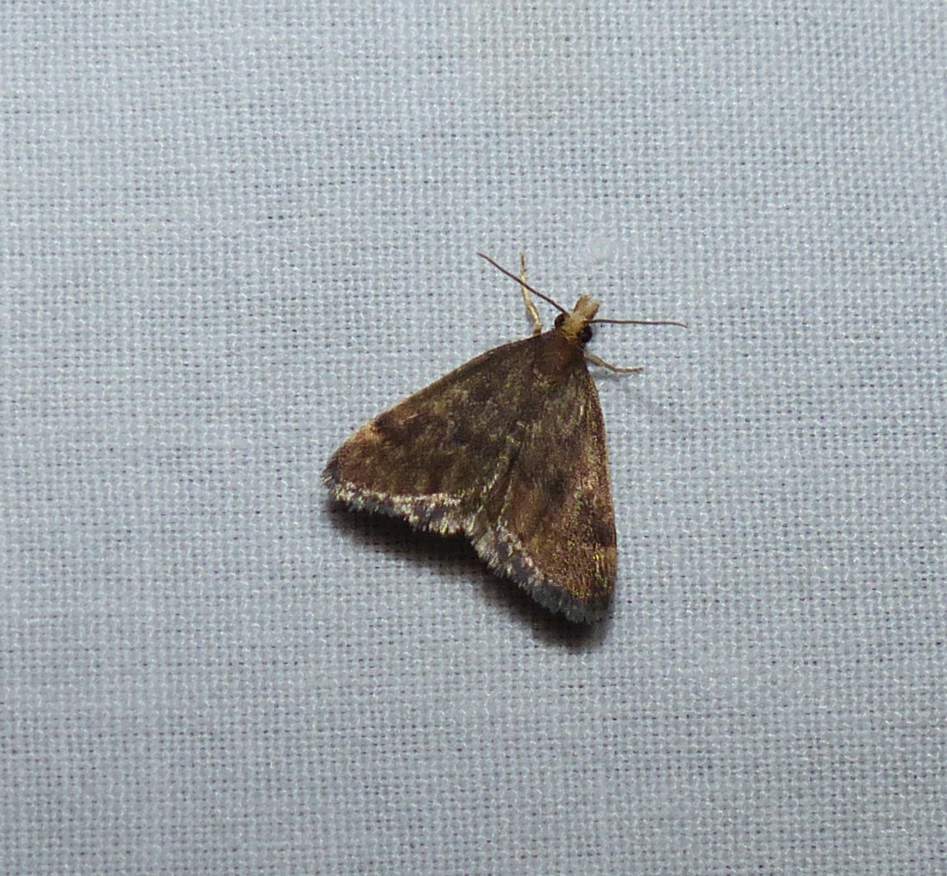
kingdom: Animalia
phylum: Arthropoda
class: Insecta
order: Lepidoptera
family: Crambidae
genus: Pyrausta
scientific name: Pyrausta merrickalis
